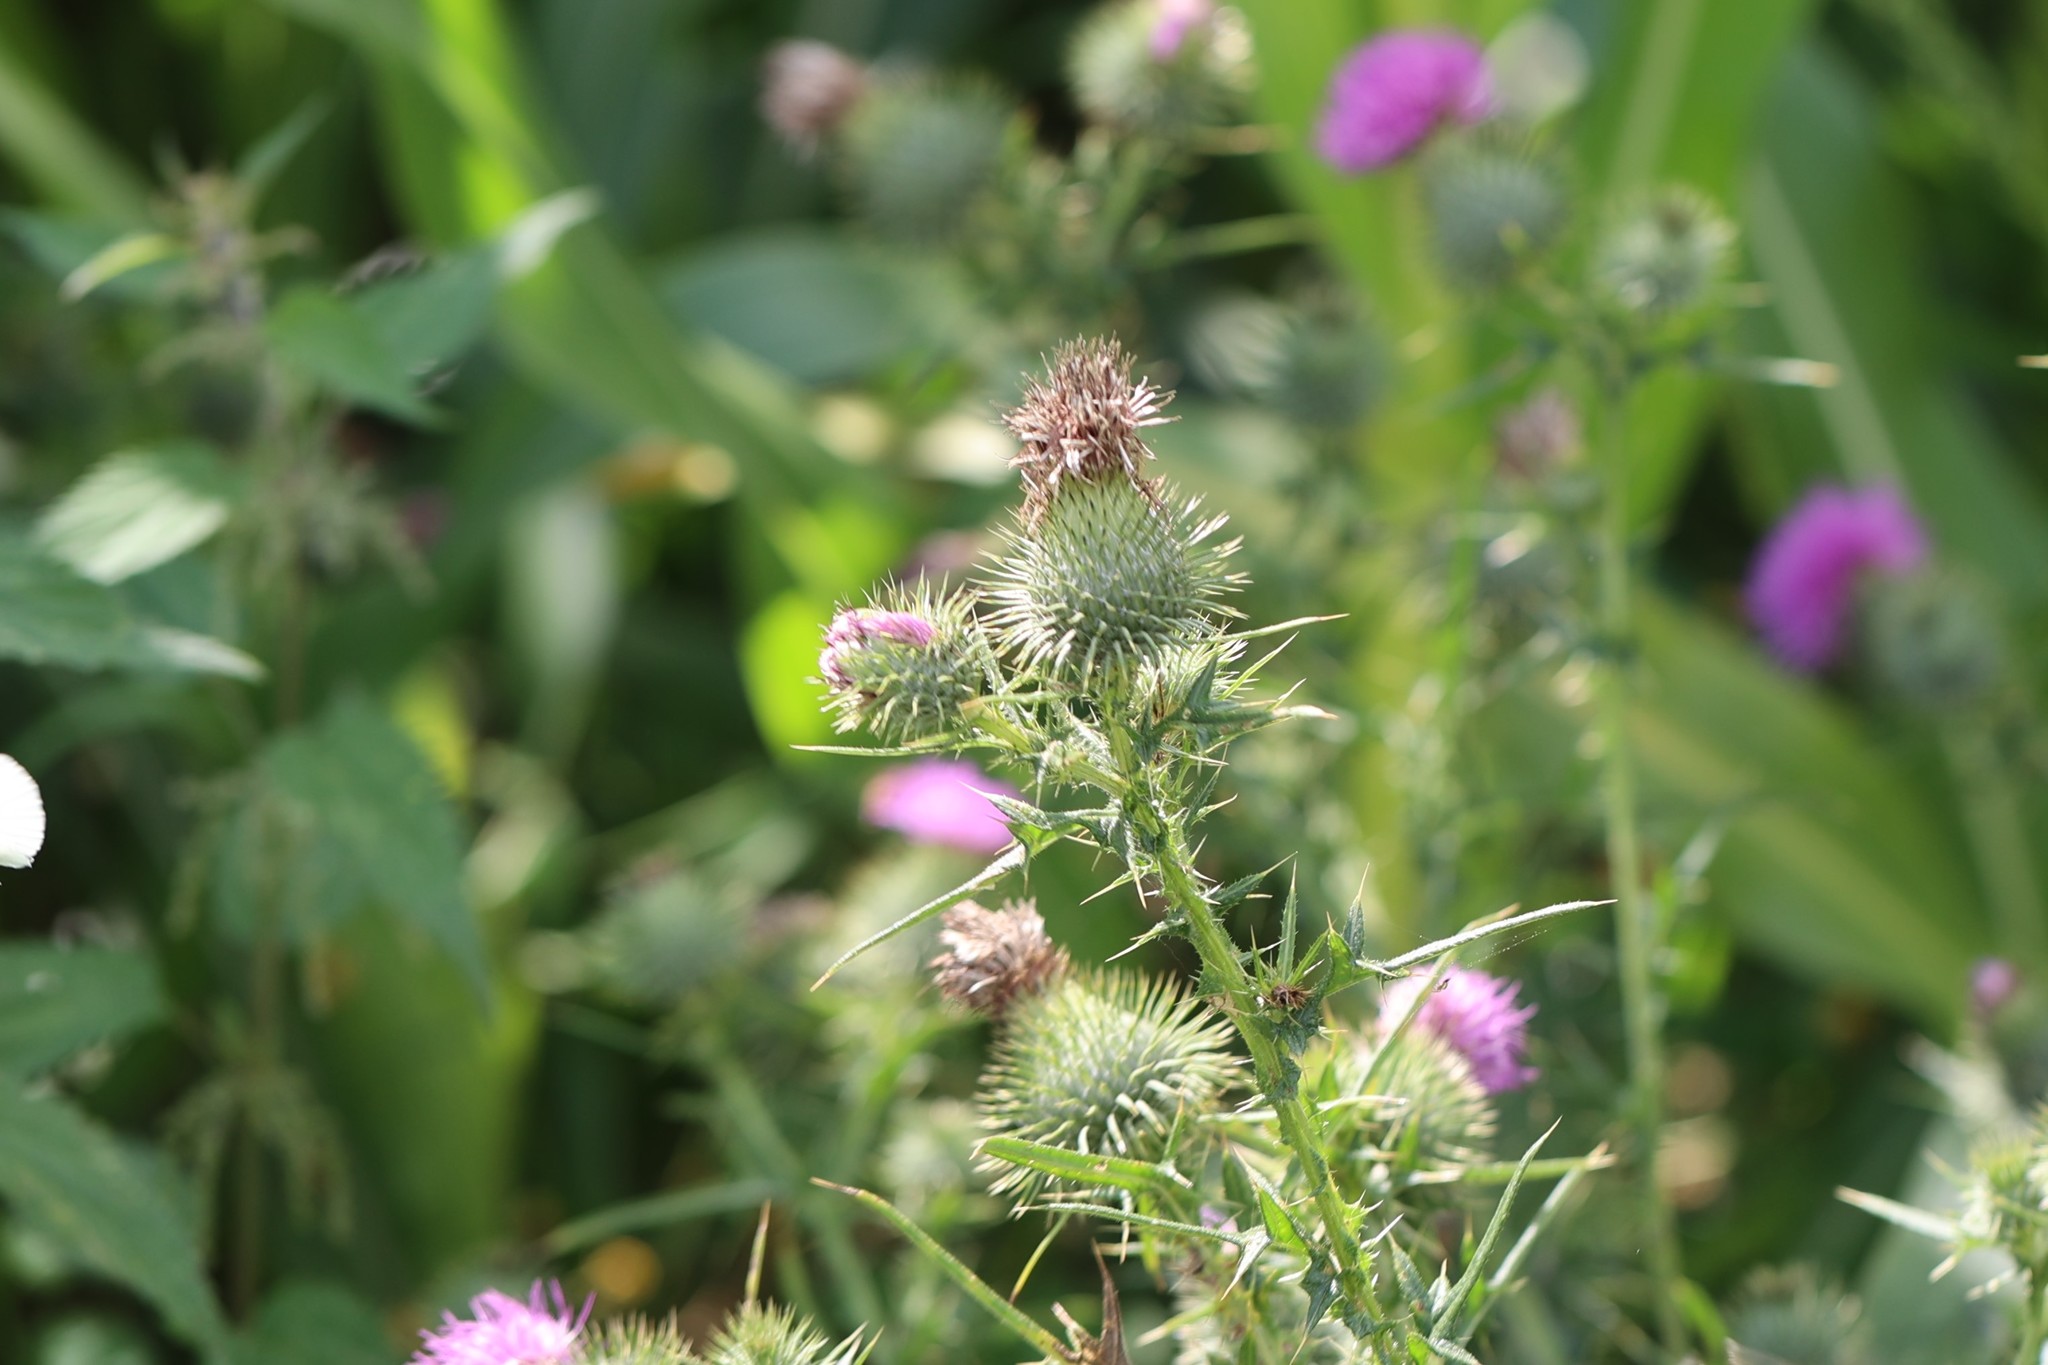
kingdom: Plantae
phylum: Tracheophyta
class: Magnoliopsida
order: Asterales
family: Asteraceae
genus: Cirsium
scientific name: Cirsium vulgare
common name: Bull thistle
